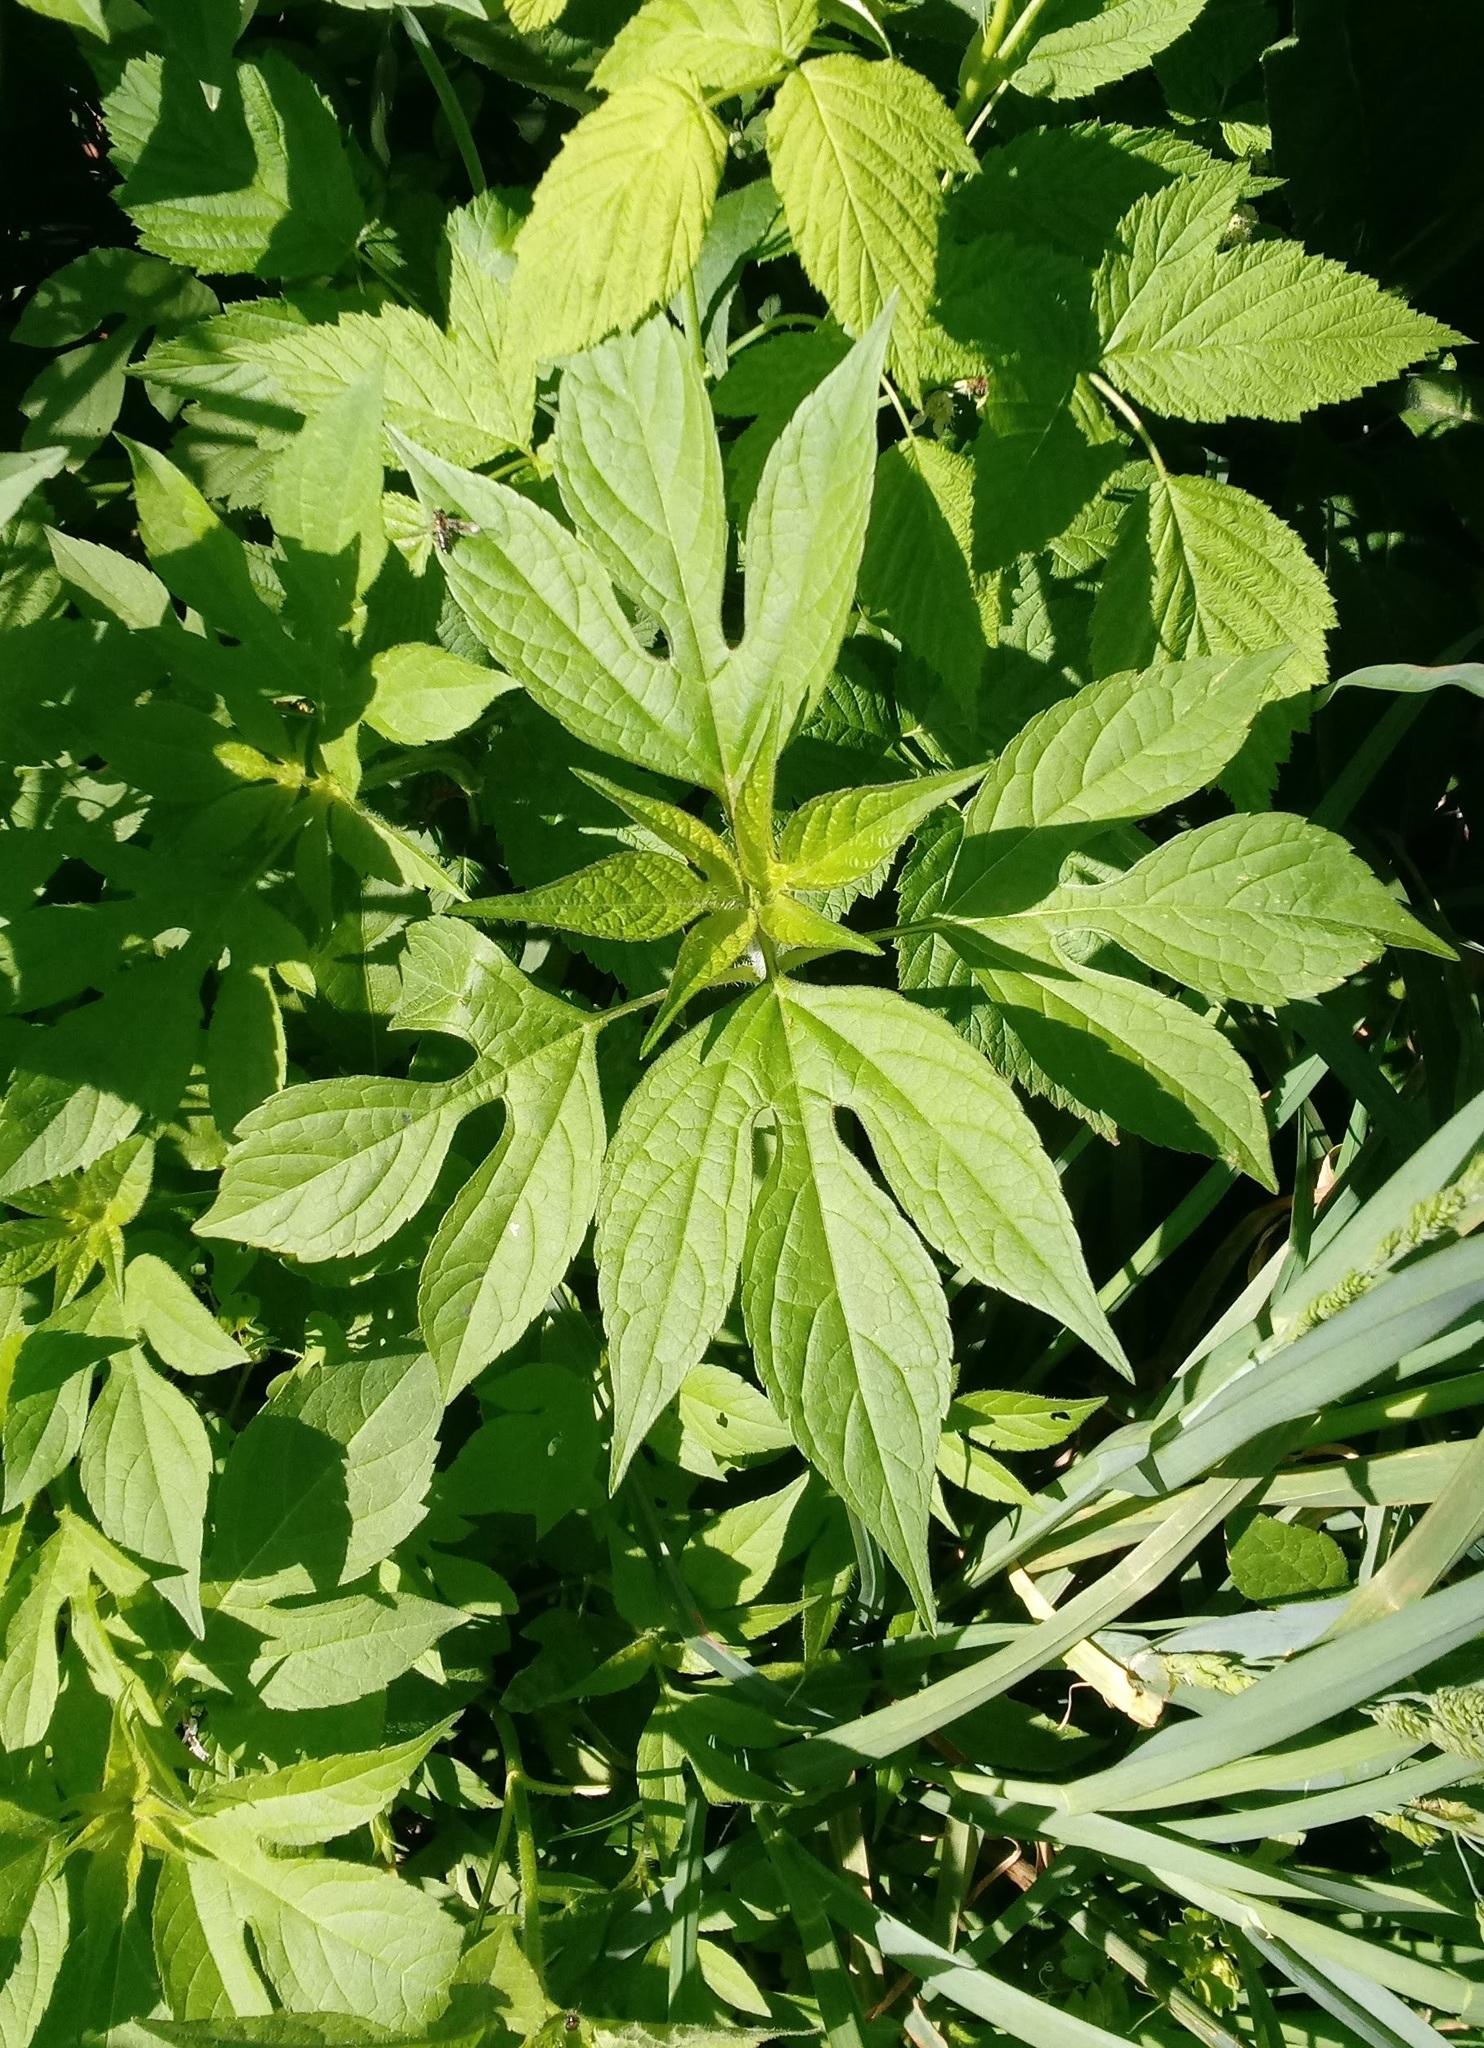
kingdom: Plantae
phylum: Tracheophyta
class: Magnoliopsida
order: Asterales
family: Asteraceae
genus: Ambrosia
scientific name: Ambrosia trifida
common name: Giant ragweed
